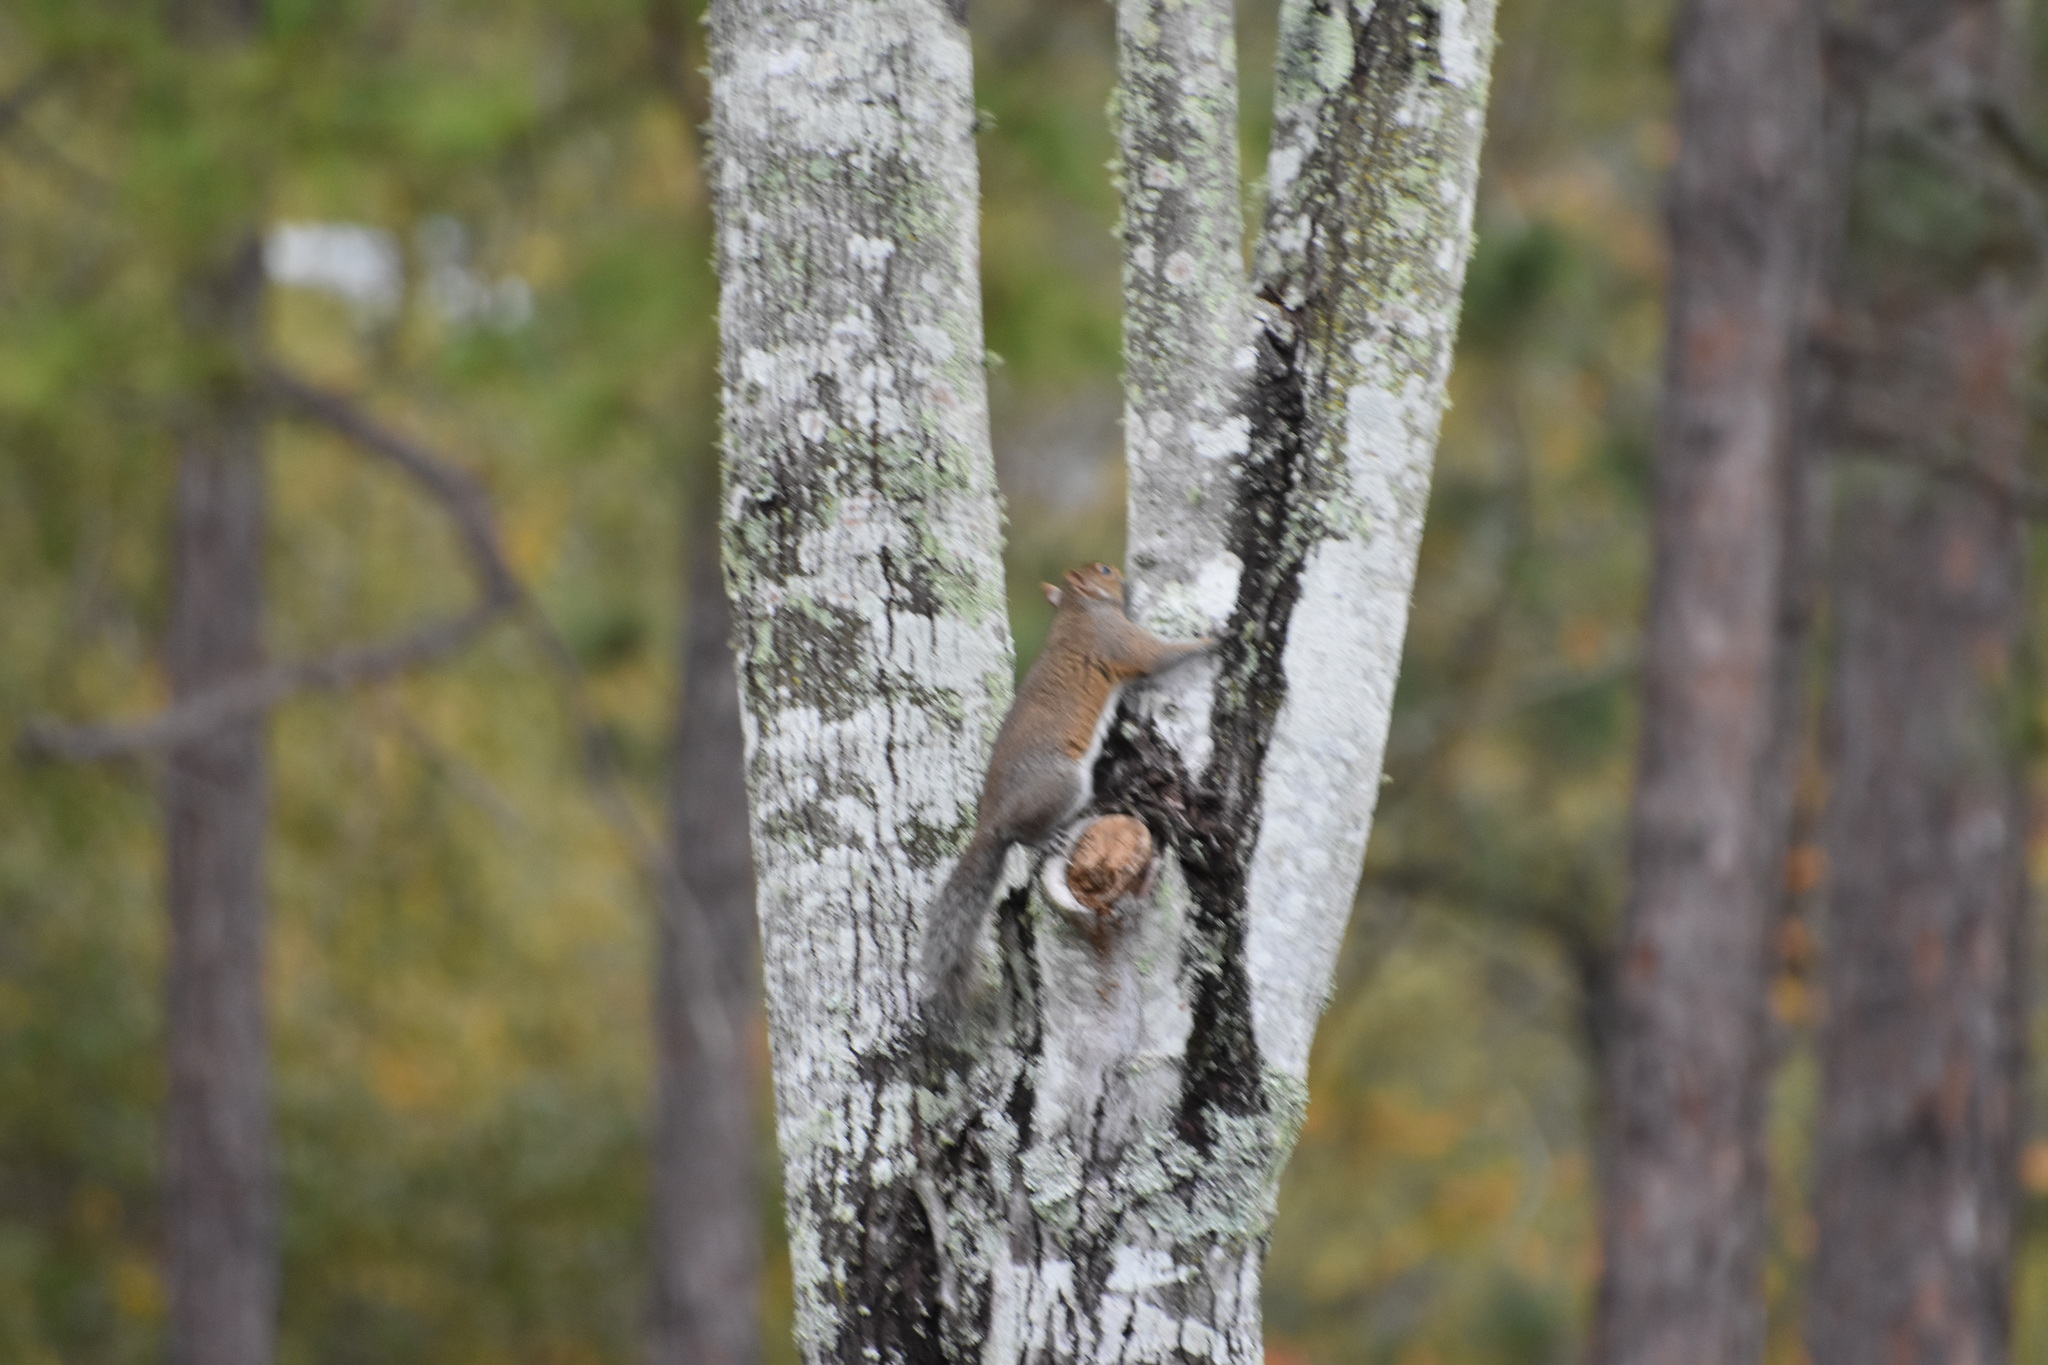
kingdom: Animalia
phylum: Chordata
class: Mammalia
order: Rodentia
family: Sciuridae
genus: Sciurus
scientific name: Sciurus carolinensis
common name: Eastern gray squirrel
